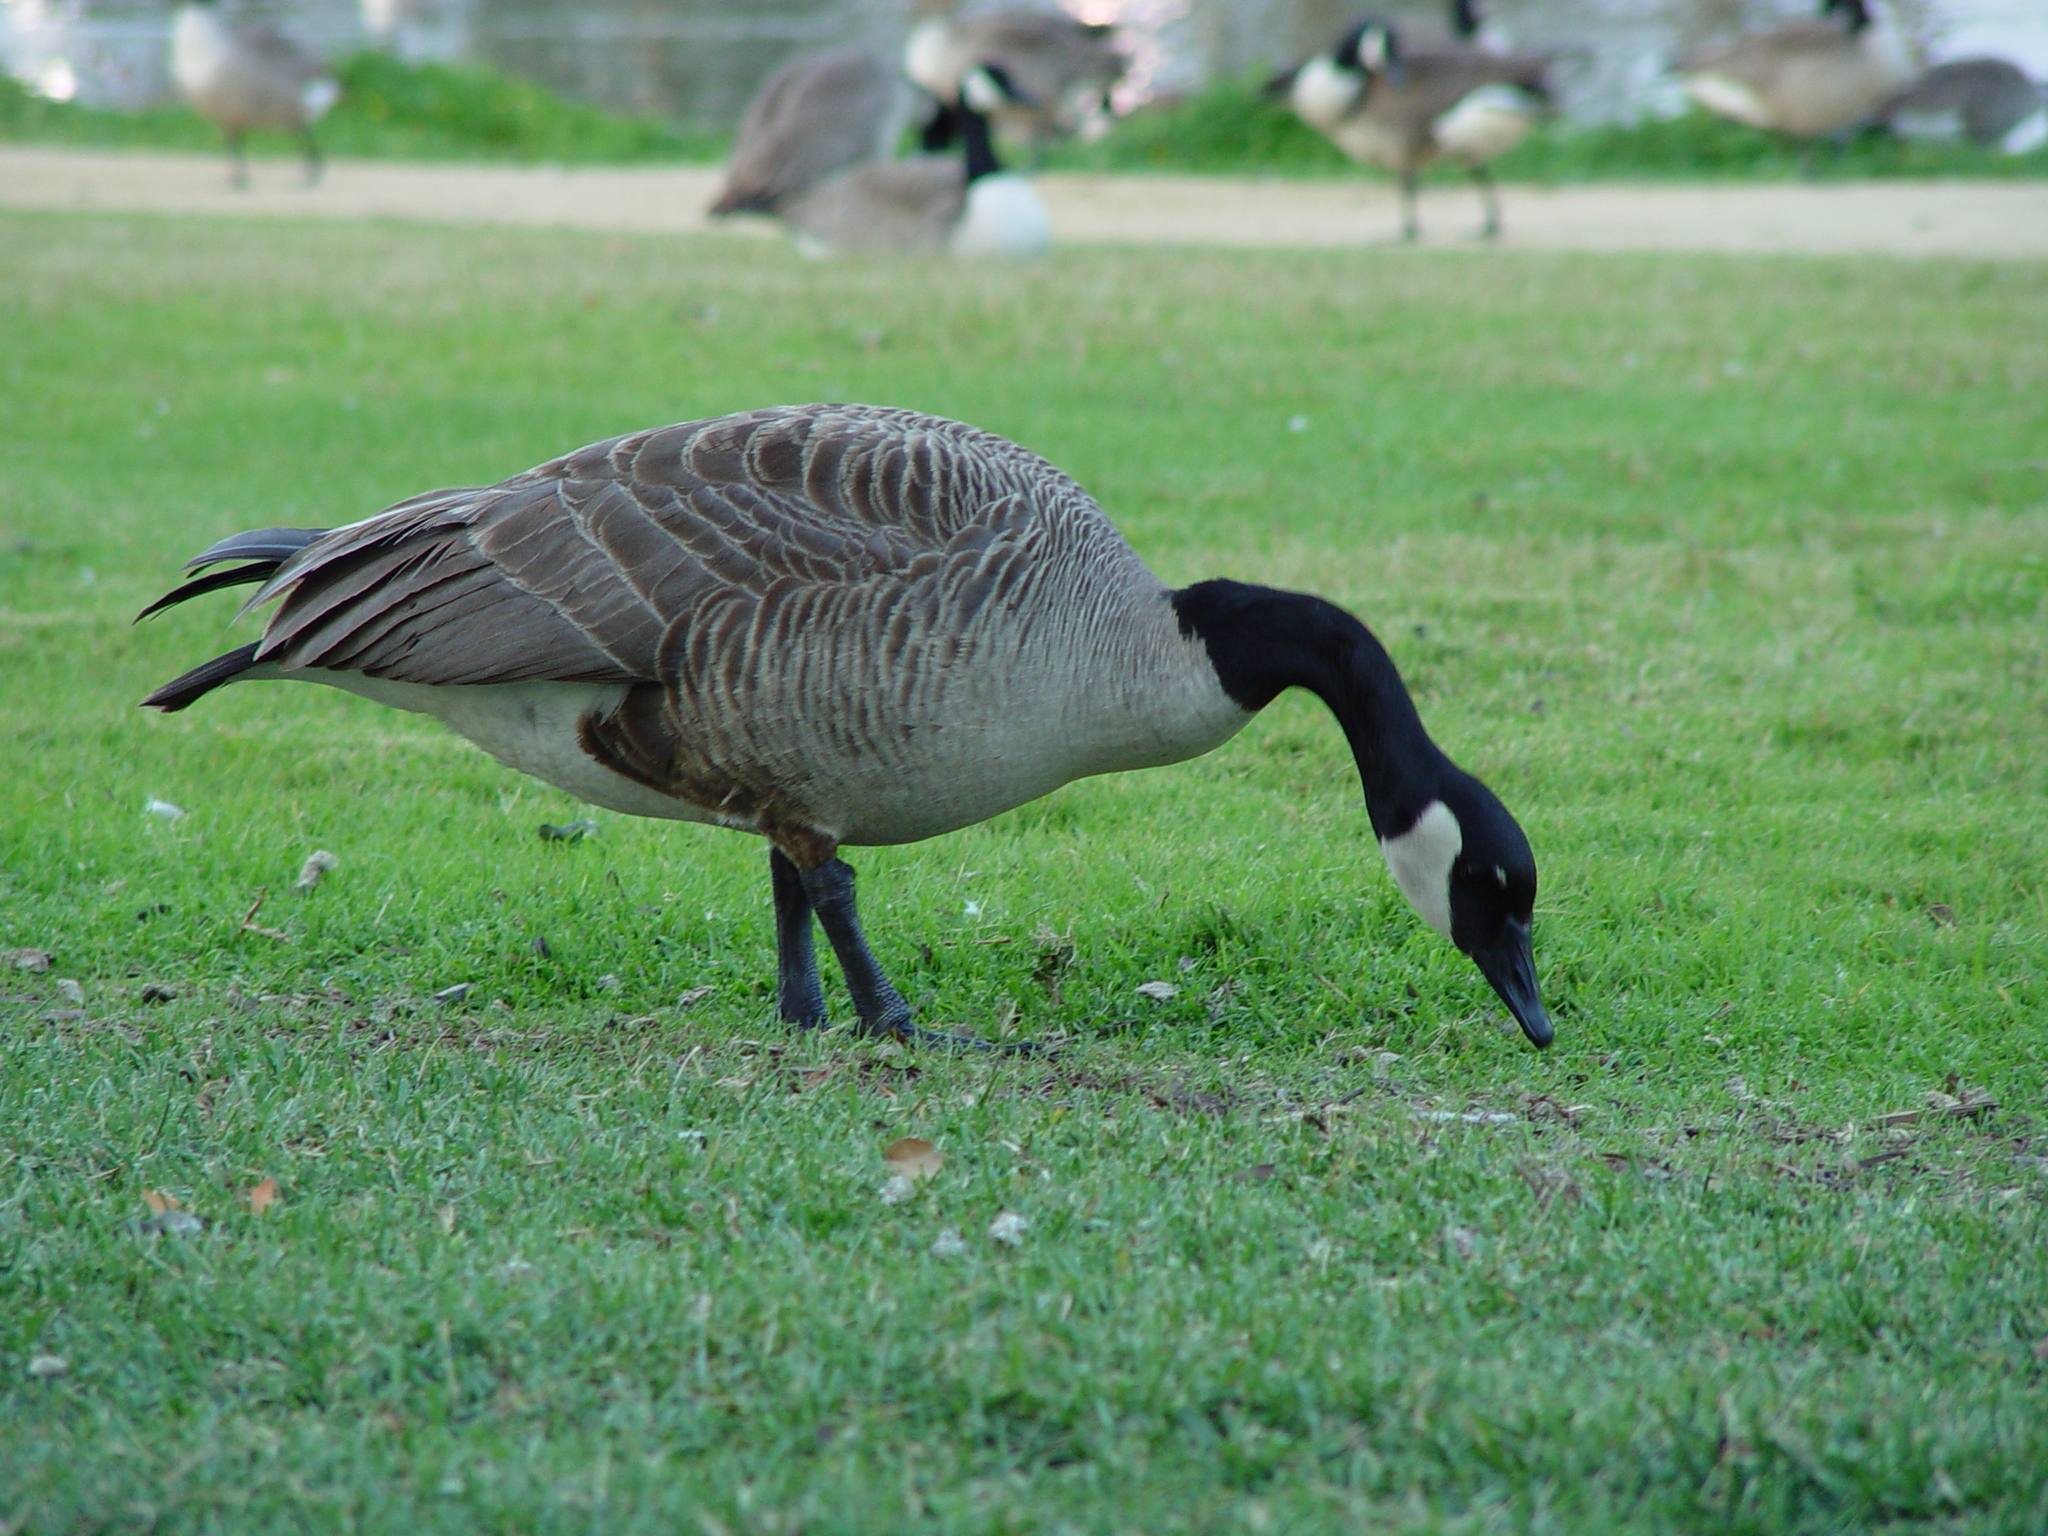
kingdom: Animalia
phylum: Chordata
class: Aves
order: Anseriformes
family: Anatidae
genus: Branta
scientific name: Branta canadensis
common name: Canada goose
